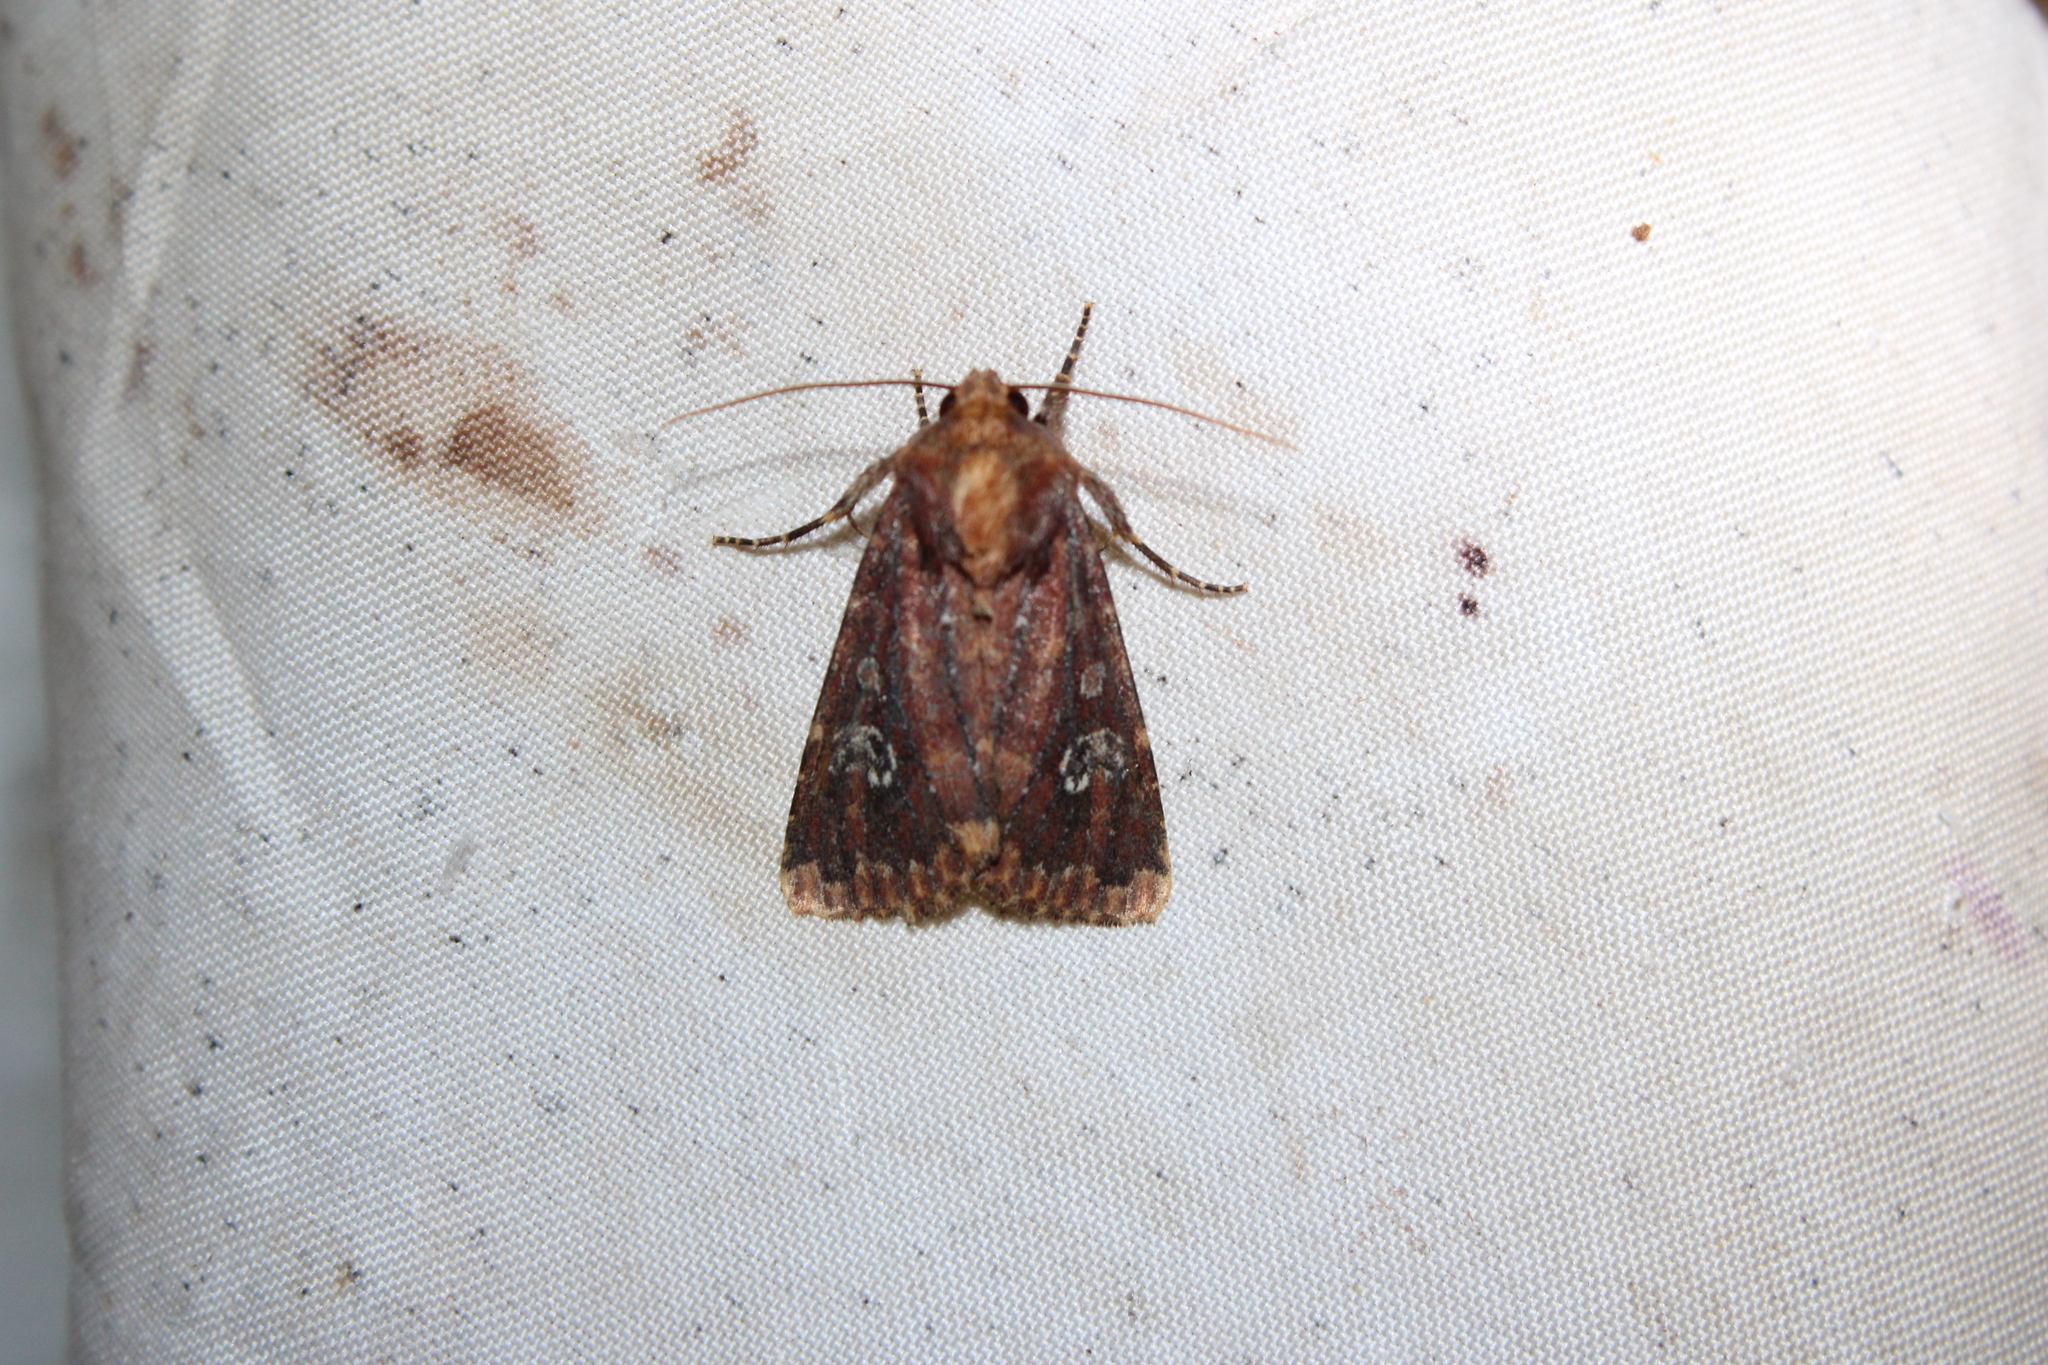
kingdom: Animalia
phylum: Arthropoda
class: Insecta
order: Lepidoptera
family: Noctuidae
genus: Sideridis
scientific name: Sideridis congermana
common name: German cousin moth
